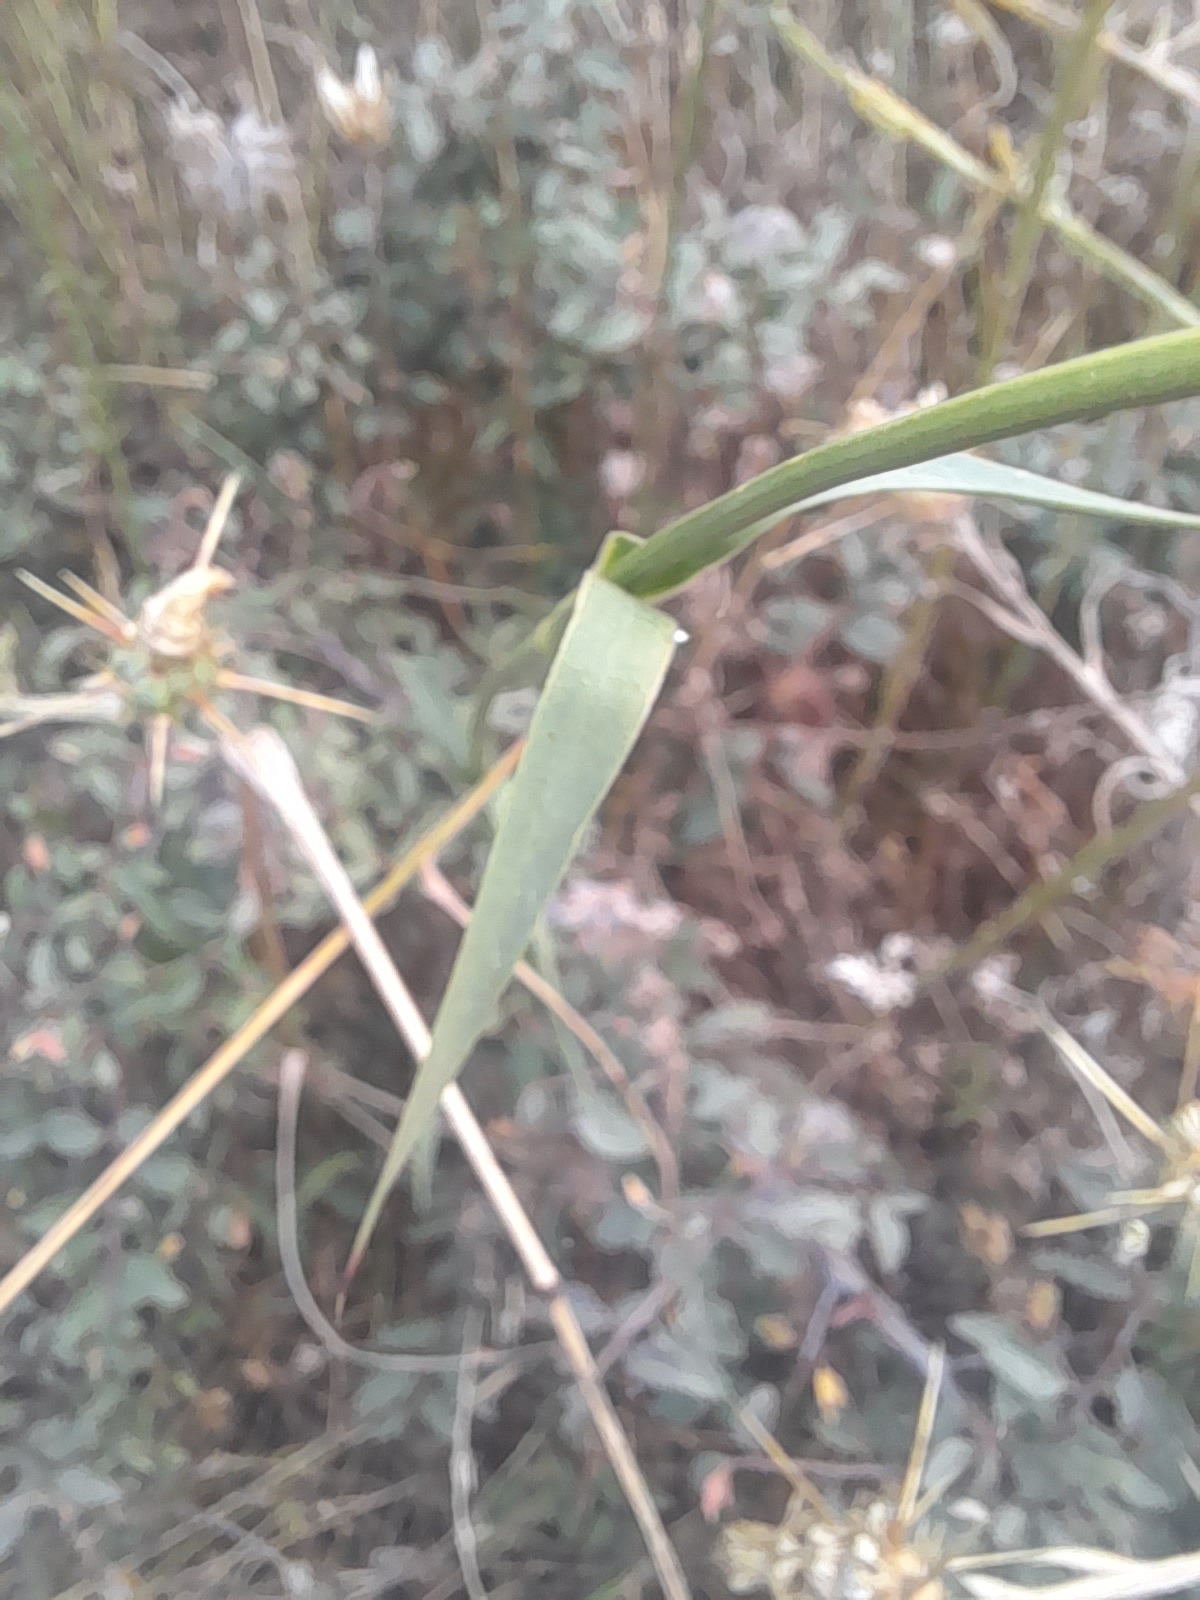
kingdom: Plantae
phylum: Tracheophyta
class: Magnoliopsida
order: Caryophyllales
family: Caryophyllaceae
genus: Dianthus
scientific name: Dianthus balbisii
